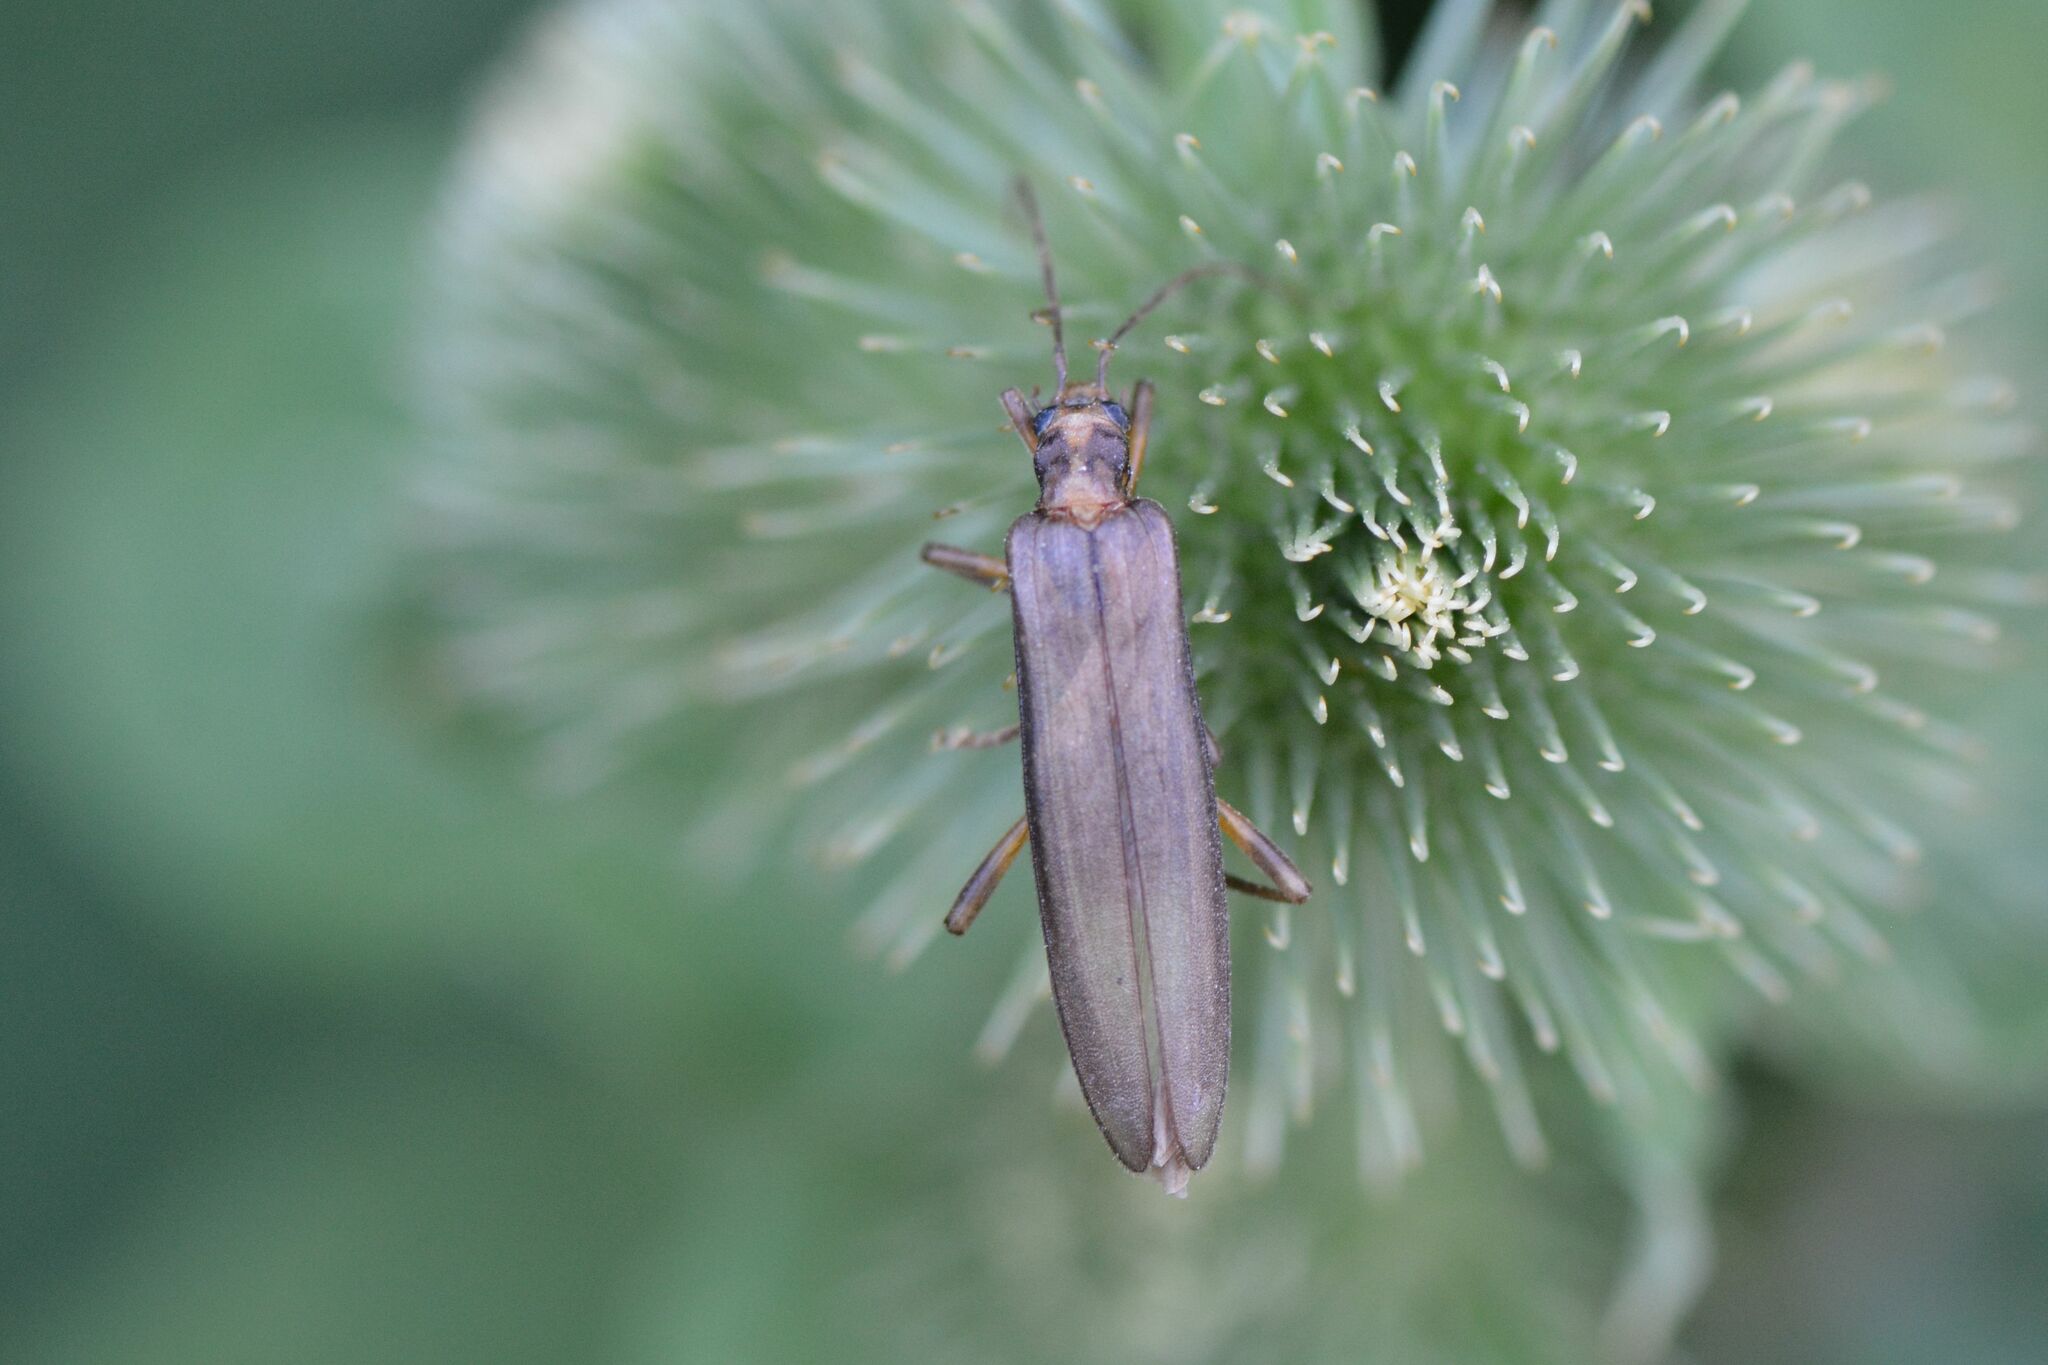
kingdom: Animalia
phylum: Arthropoda
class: Insecta
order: Coleoptera
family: Oedemeridae
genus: Oedemera
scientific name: Oedemera femoralis
